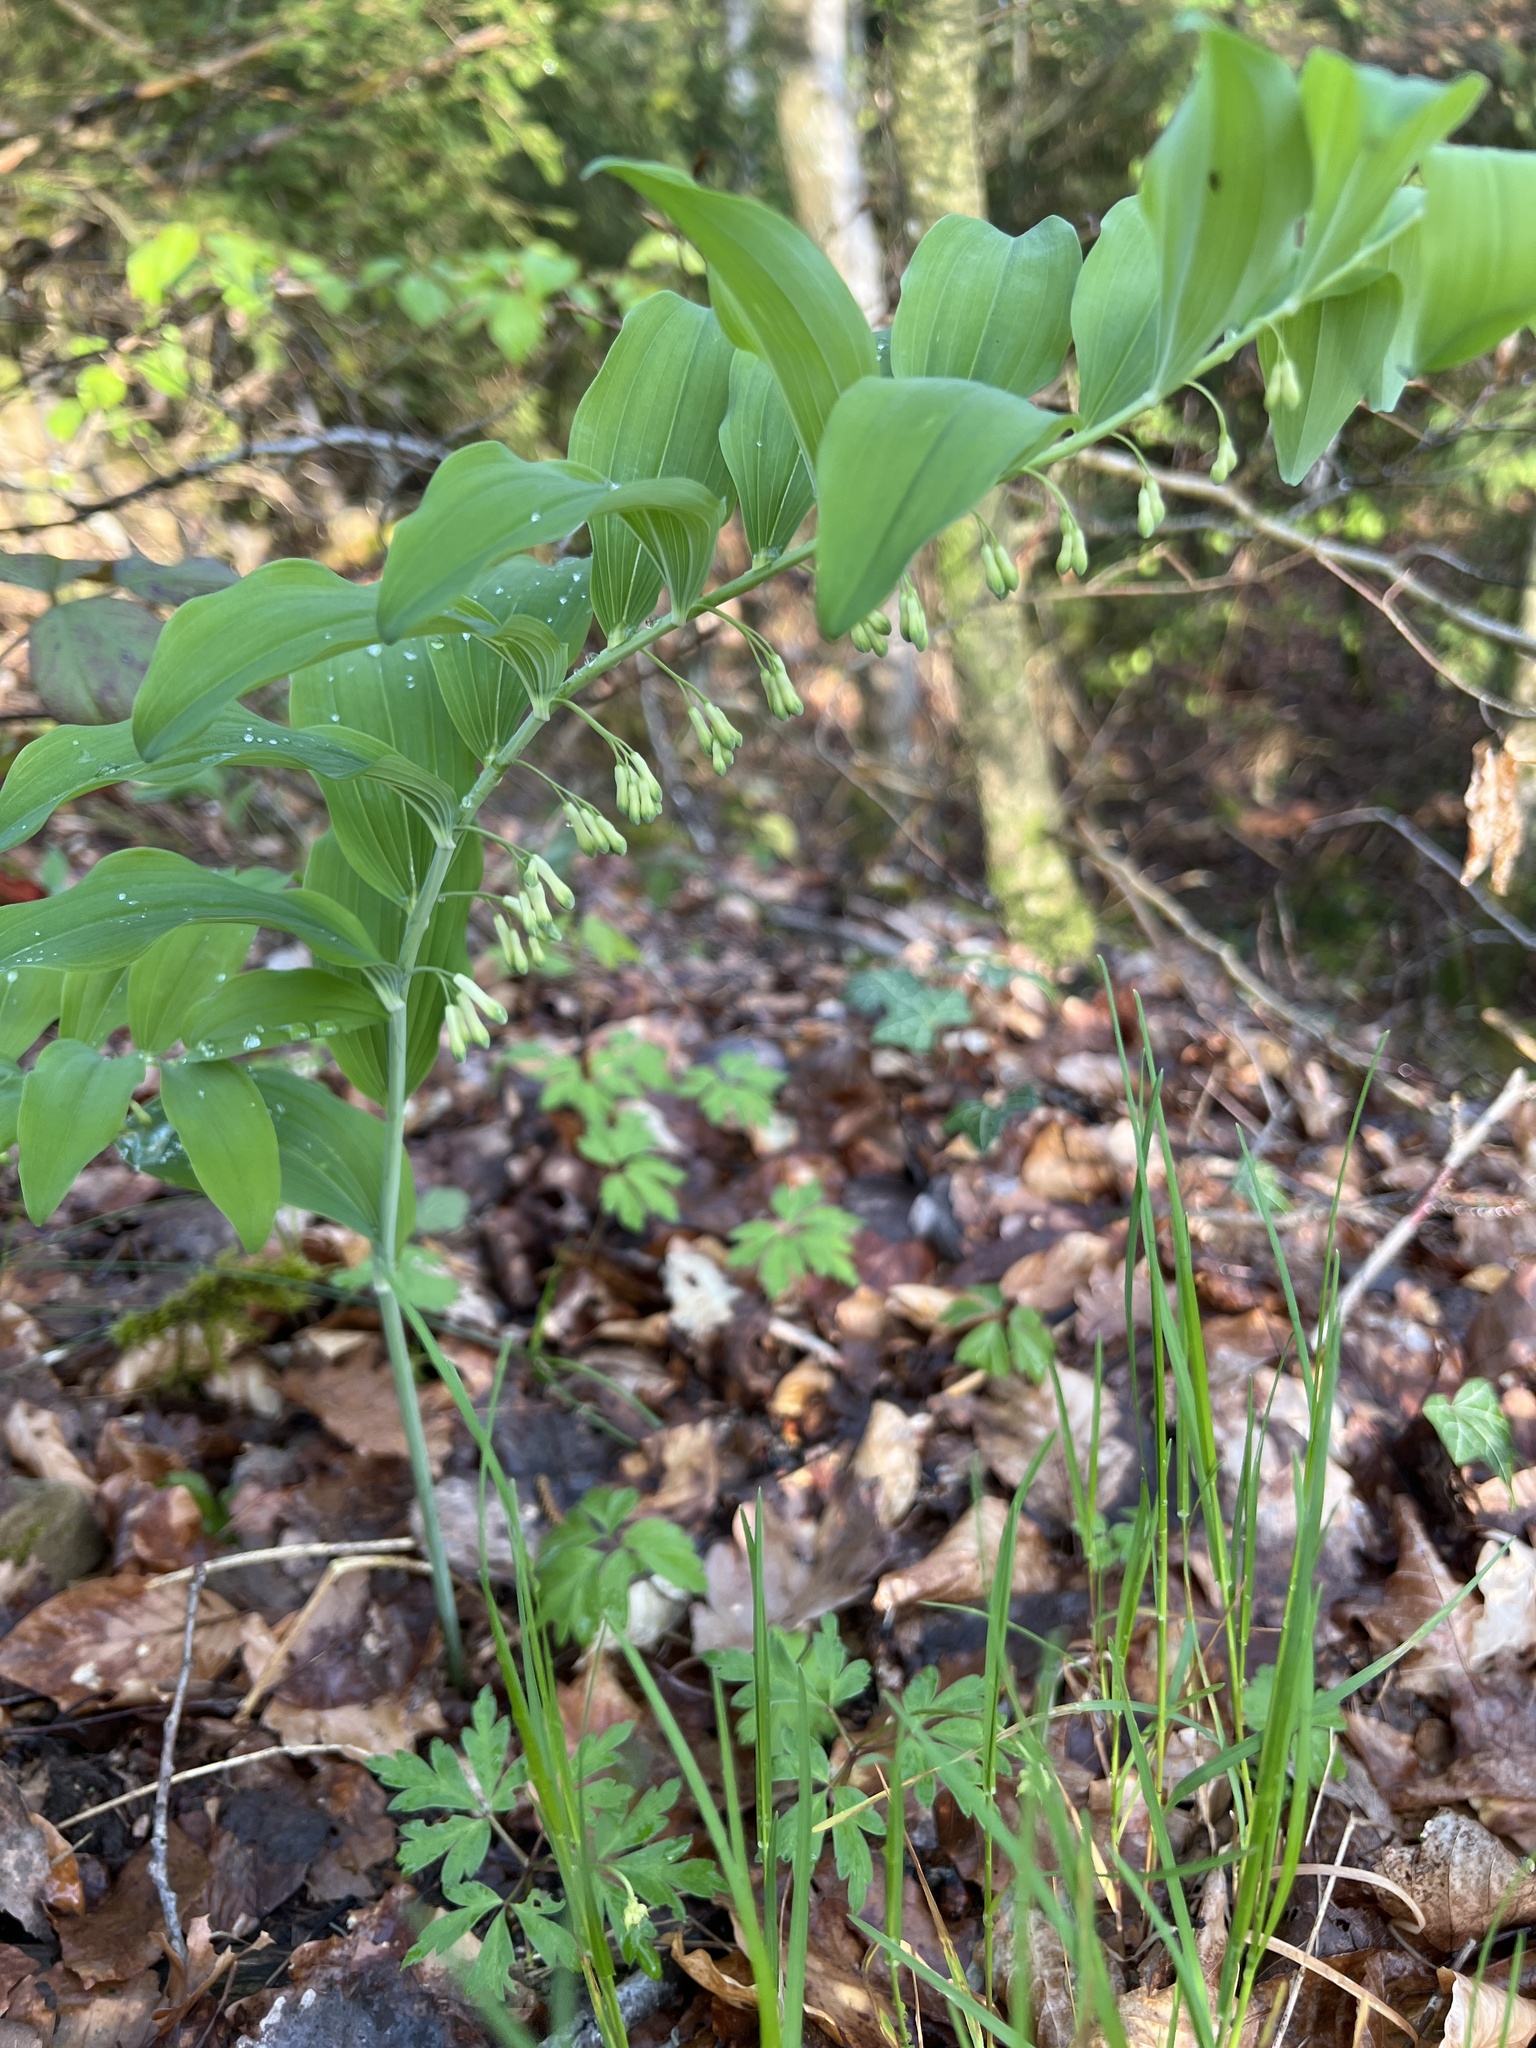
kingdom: Plantae
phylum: Tracheophyta
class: Liliopsida
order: Asparagales
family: Asparagaceae
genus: Polygonatum
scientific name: Polygonatum multiflorum
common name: Solomon's-seal
